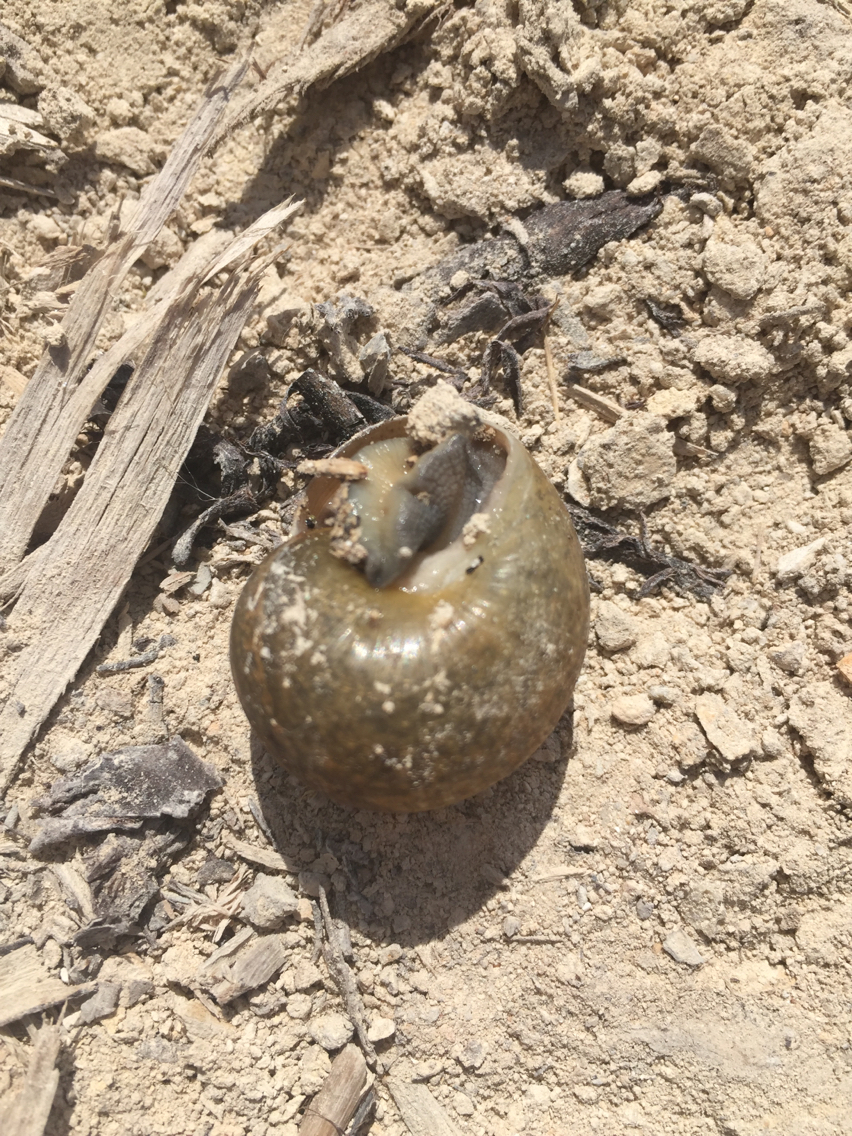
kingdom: Animalia
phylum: Mollusca
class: Gastropoda
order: Stylommatophora
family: Zachrysiidae
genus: Zachrysia
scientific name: Zachrysia provisoria
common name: Garden zachrysia
